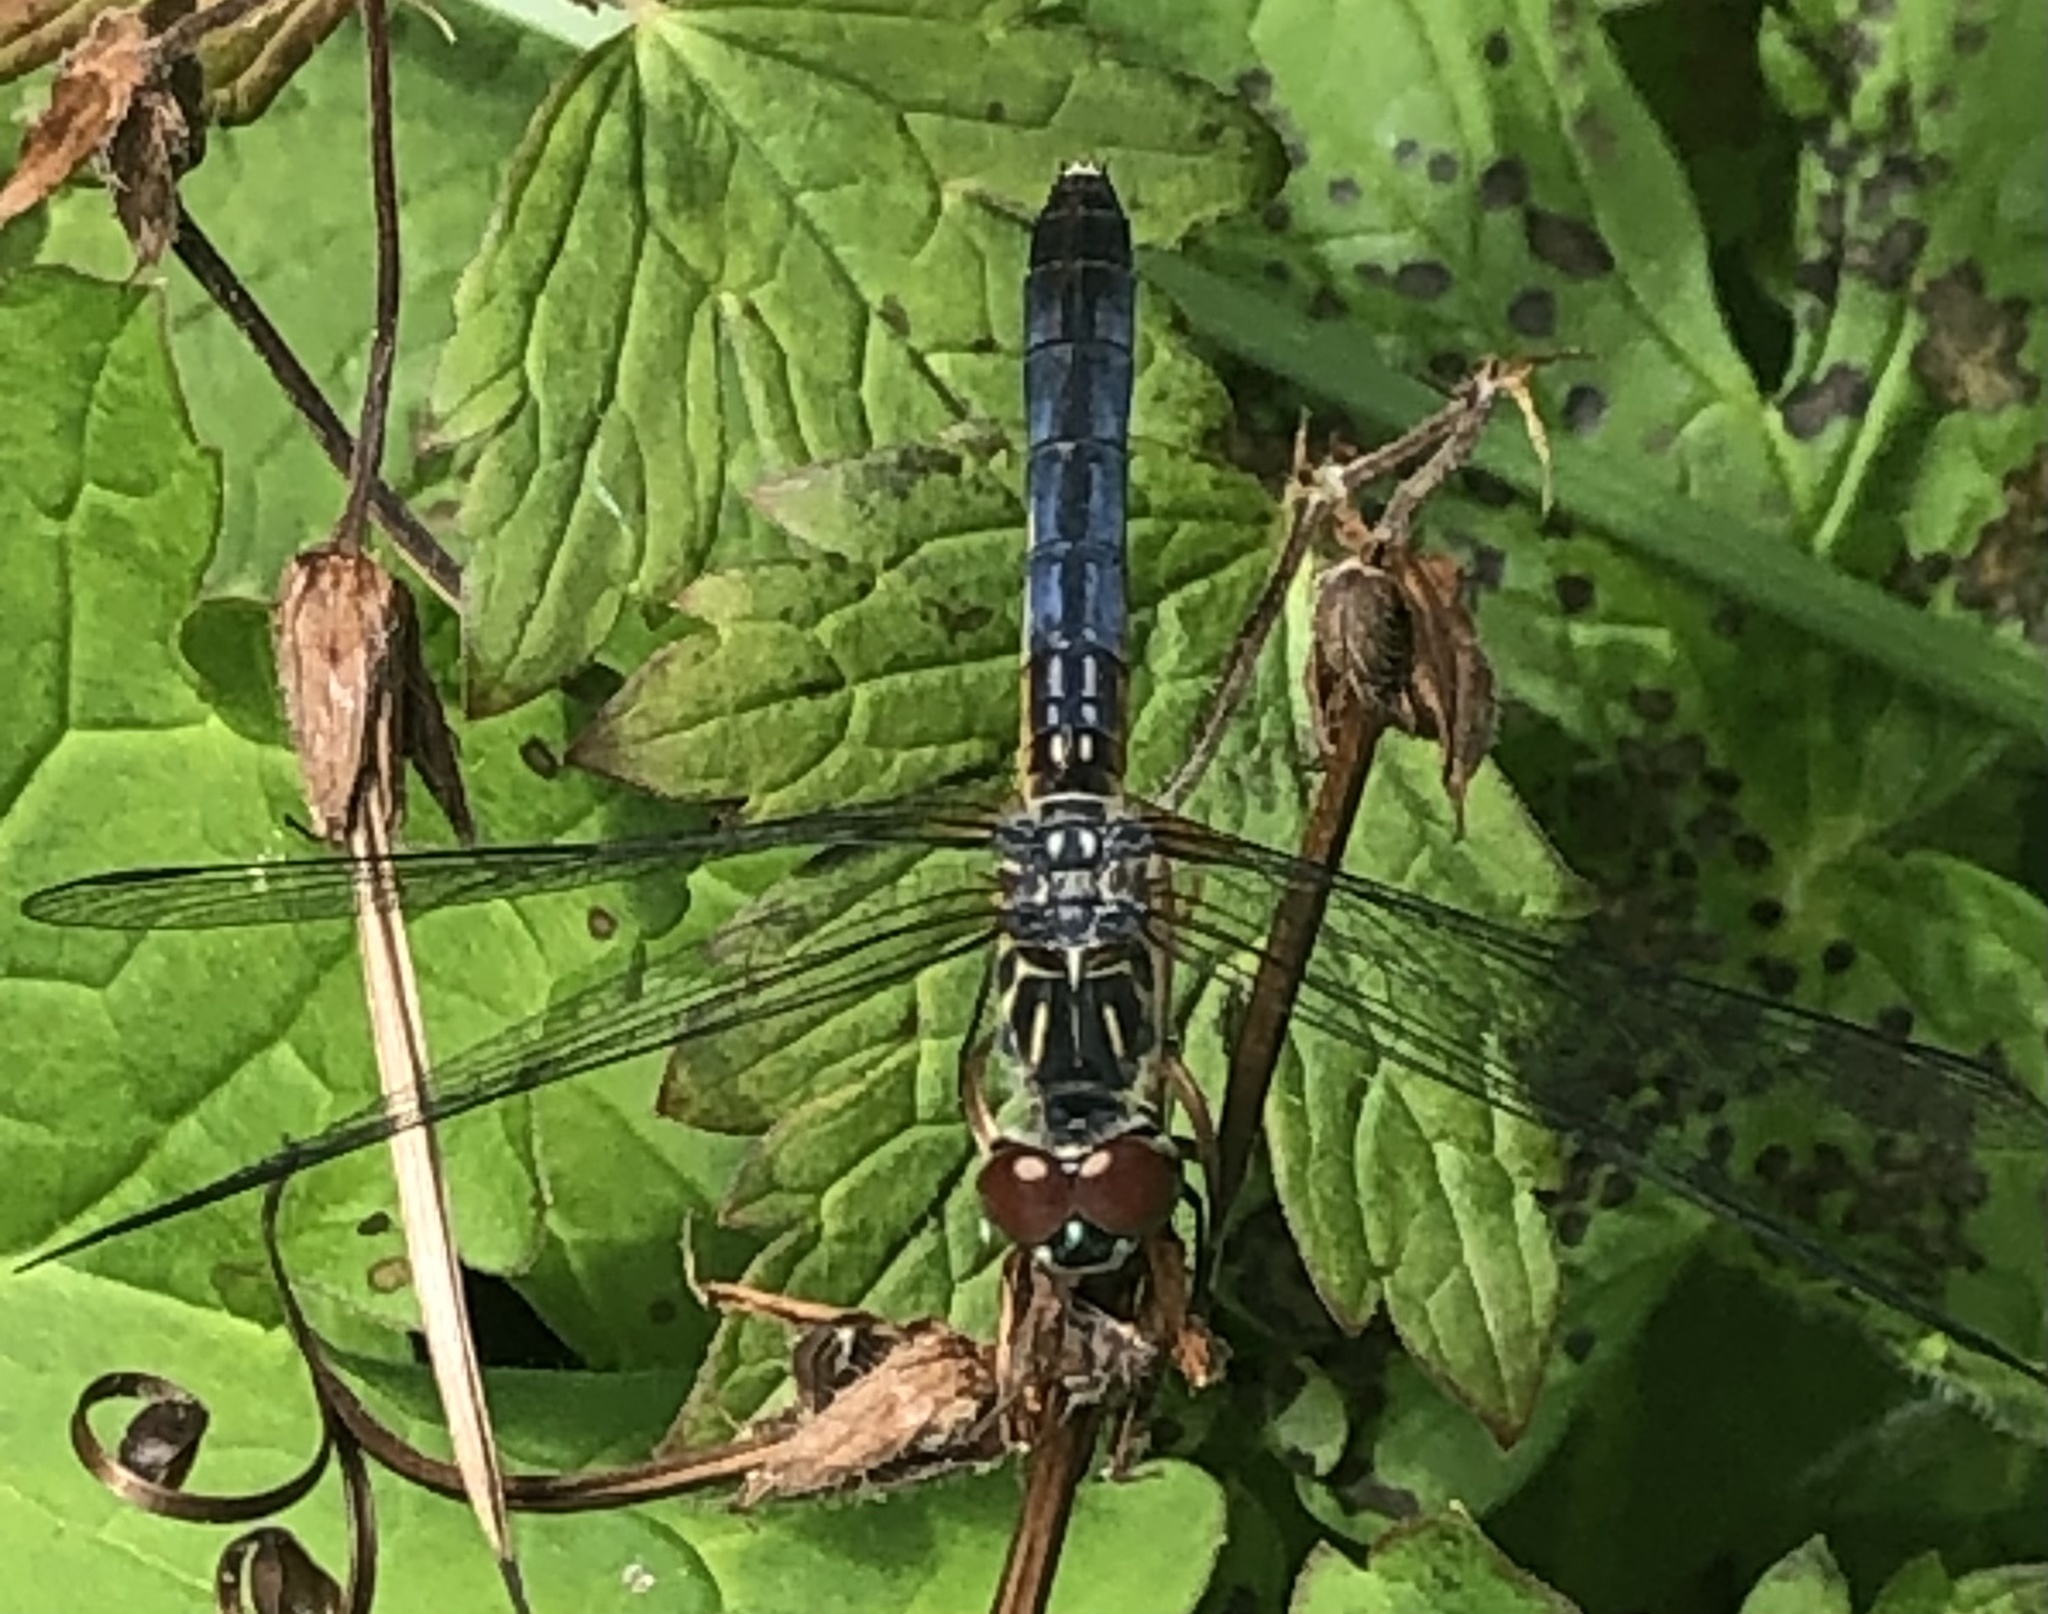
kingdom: Animalia
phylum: Arthropoda
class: Insecta
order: Odonata
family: Libellulidae
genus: Pachydiplax
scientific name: Pachydiplax longipennis
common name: Blue dasher
